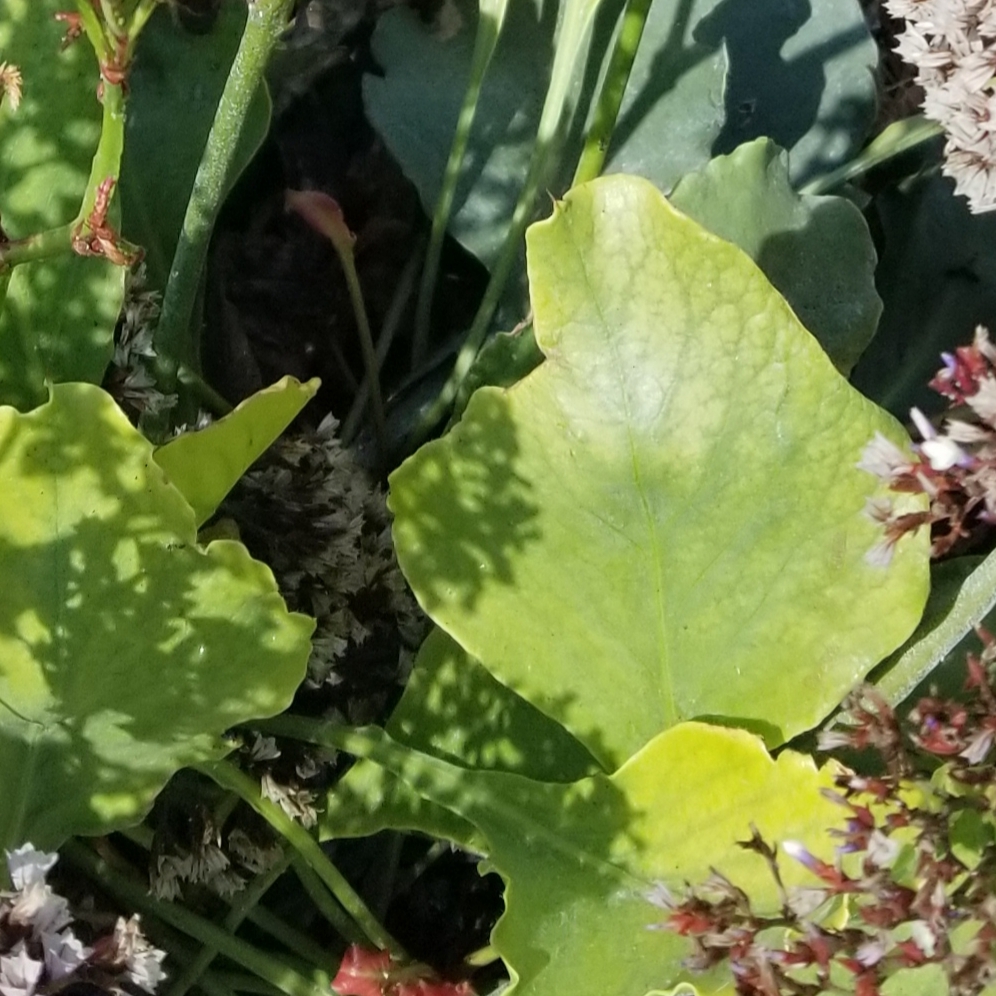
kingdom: Plantae
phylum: Tracheophyta
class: Magnoliopsida
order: Caryophyllales
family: Plumbaginaceae
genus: Limonium
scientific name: Limonium perezii
